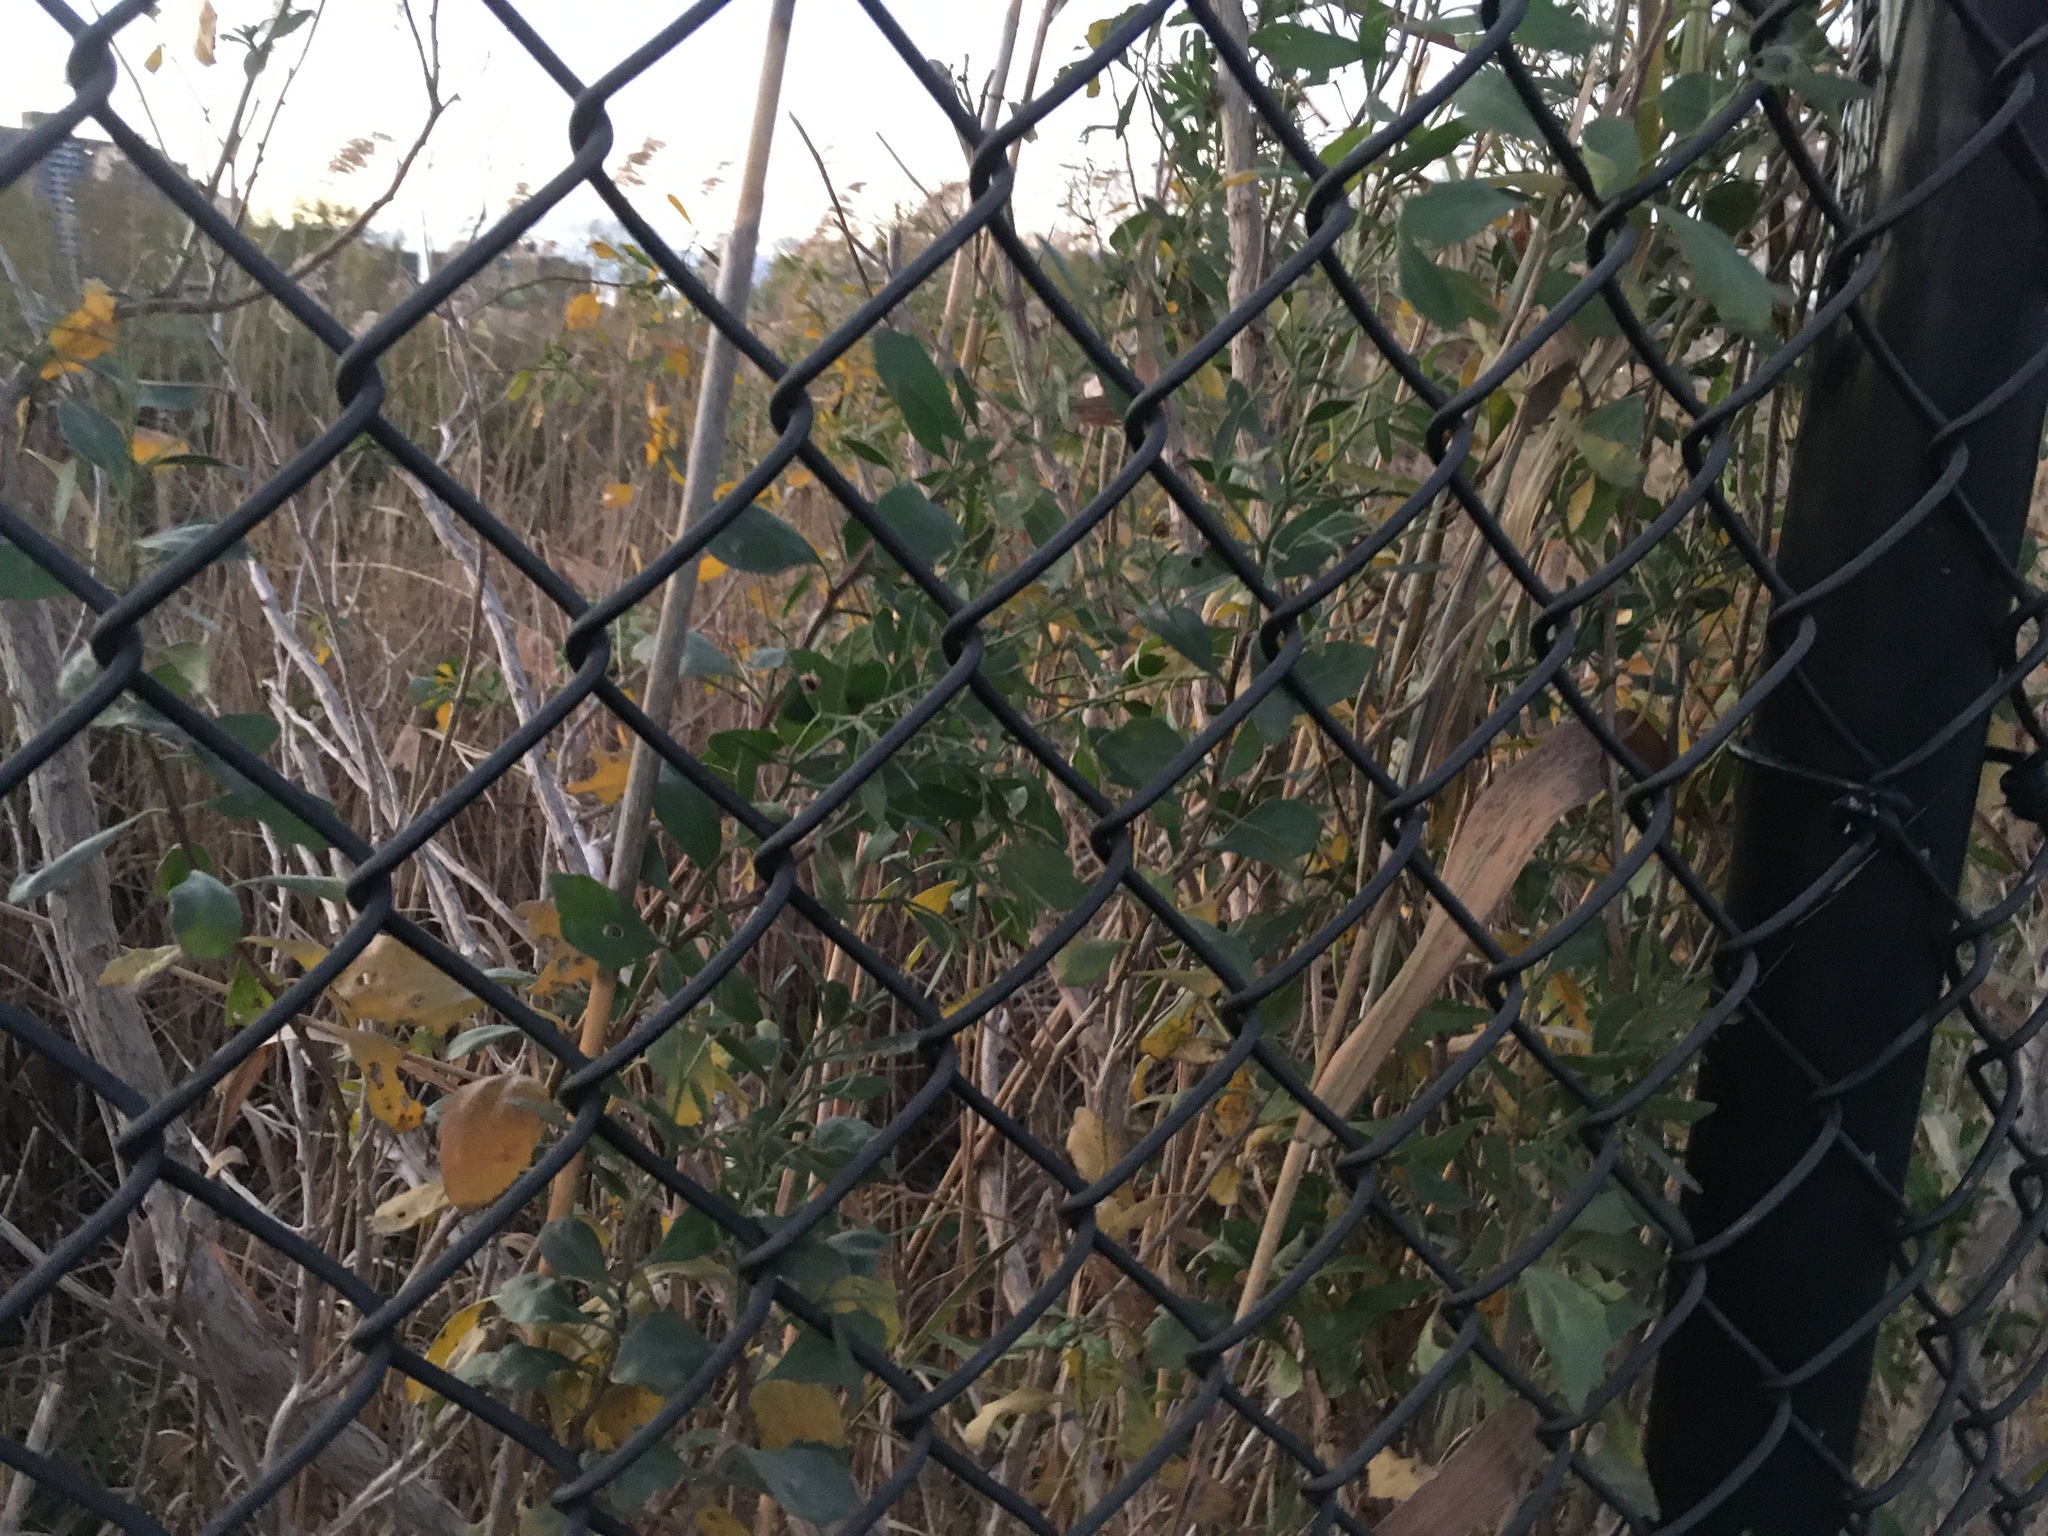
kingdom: Plantae
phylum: Tracheophyta
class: Magnoliopsida
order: Asterales
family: Asteraceae
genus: Baccharis
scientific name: Baccharis halimifolia
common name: Eastern baccharis
